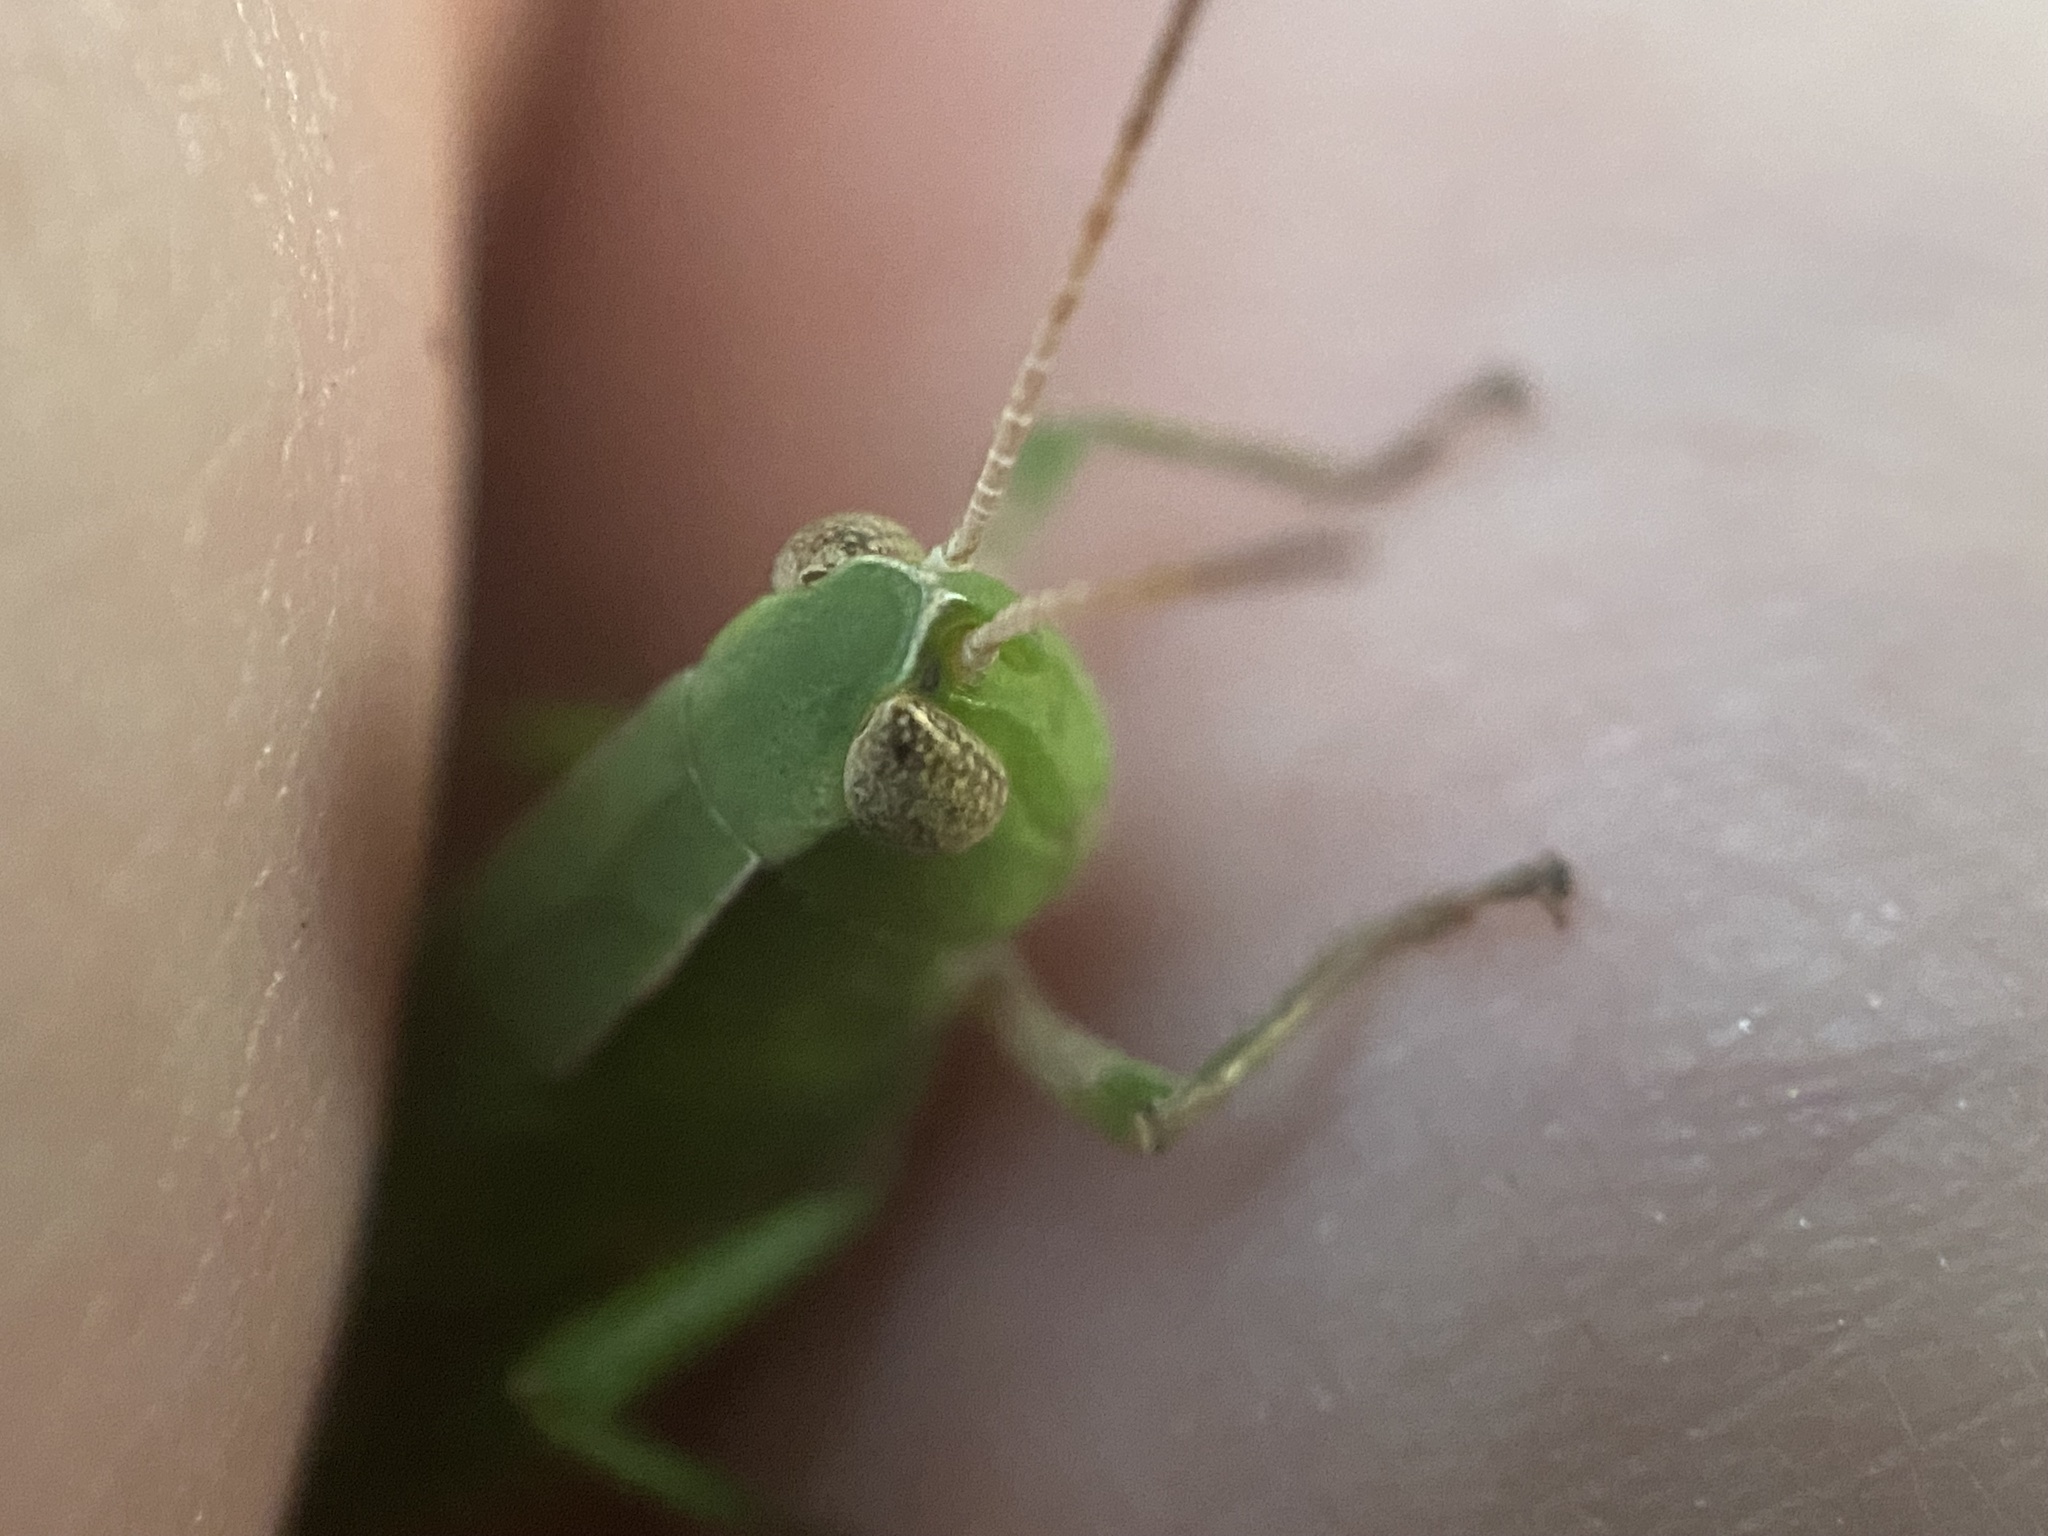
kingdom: Animalia
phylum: Arthropoda
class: Insecta
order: Orthoptera
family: Acrididae
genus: Dichromorpha
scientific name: Dichromorpha viridis
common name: Short-winged green grasshopper
